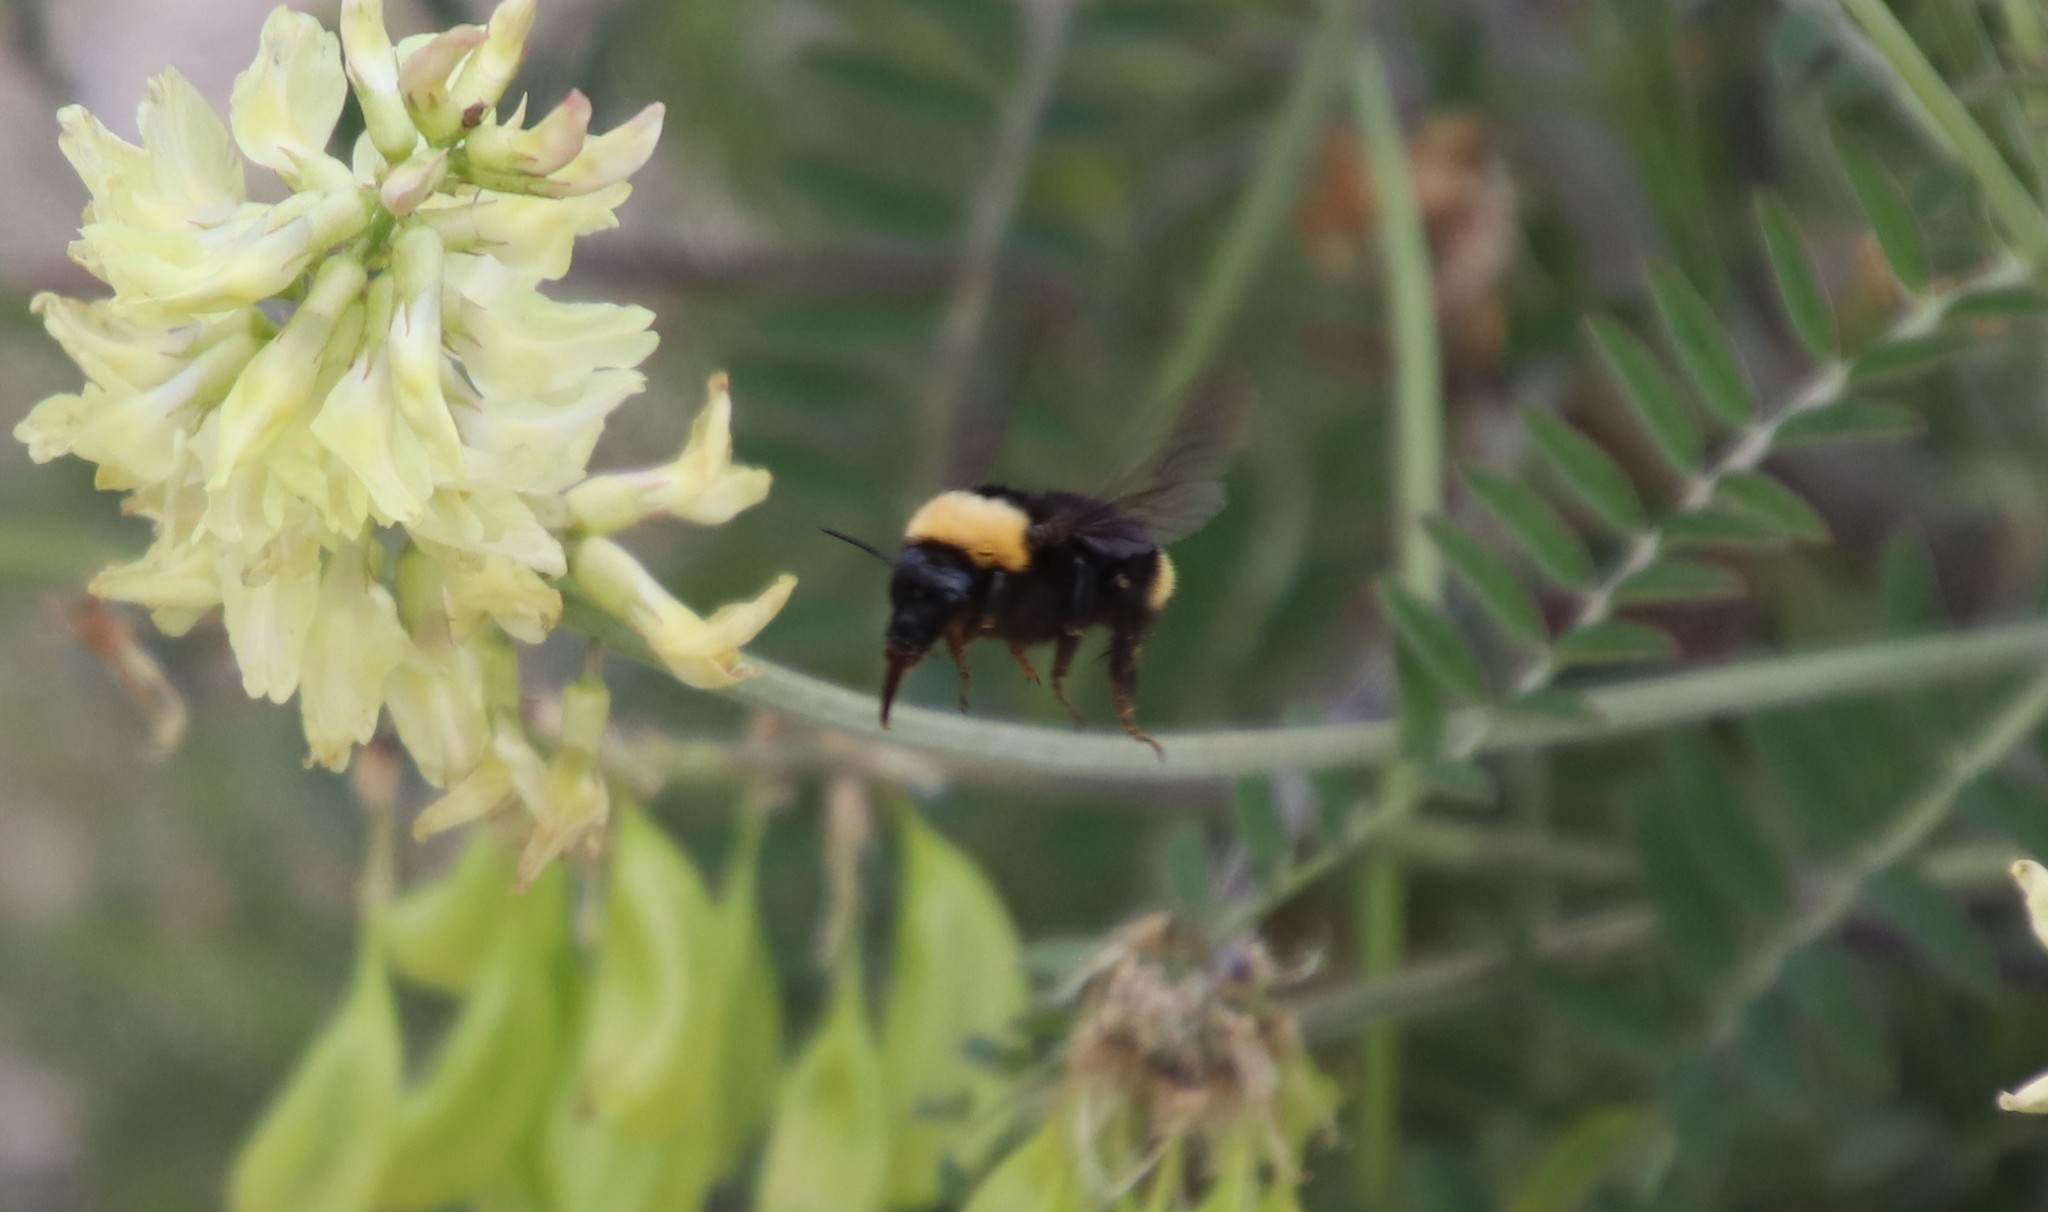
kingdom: Animalia
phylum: Arthropoda
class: Insecta
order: Hymenoptera
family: Apidae
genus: Bombus
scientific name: Bombus californicus
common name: California bumble bee
